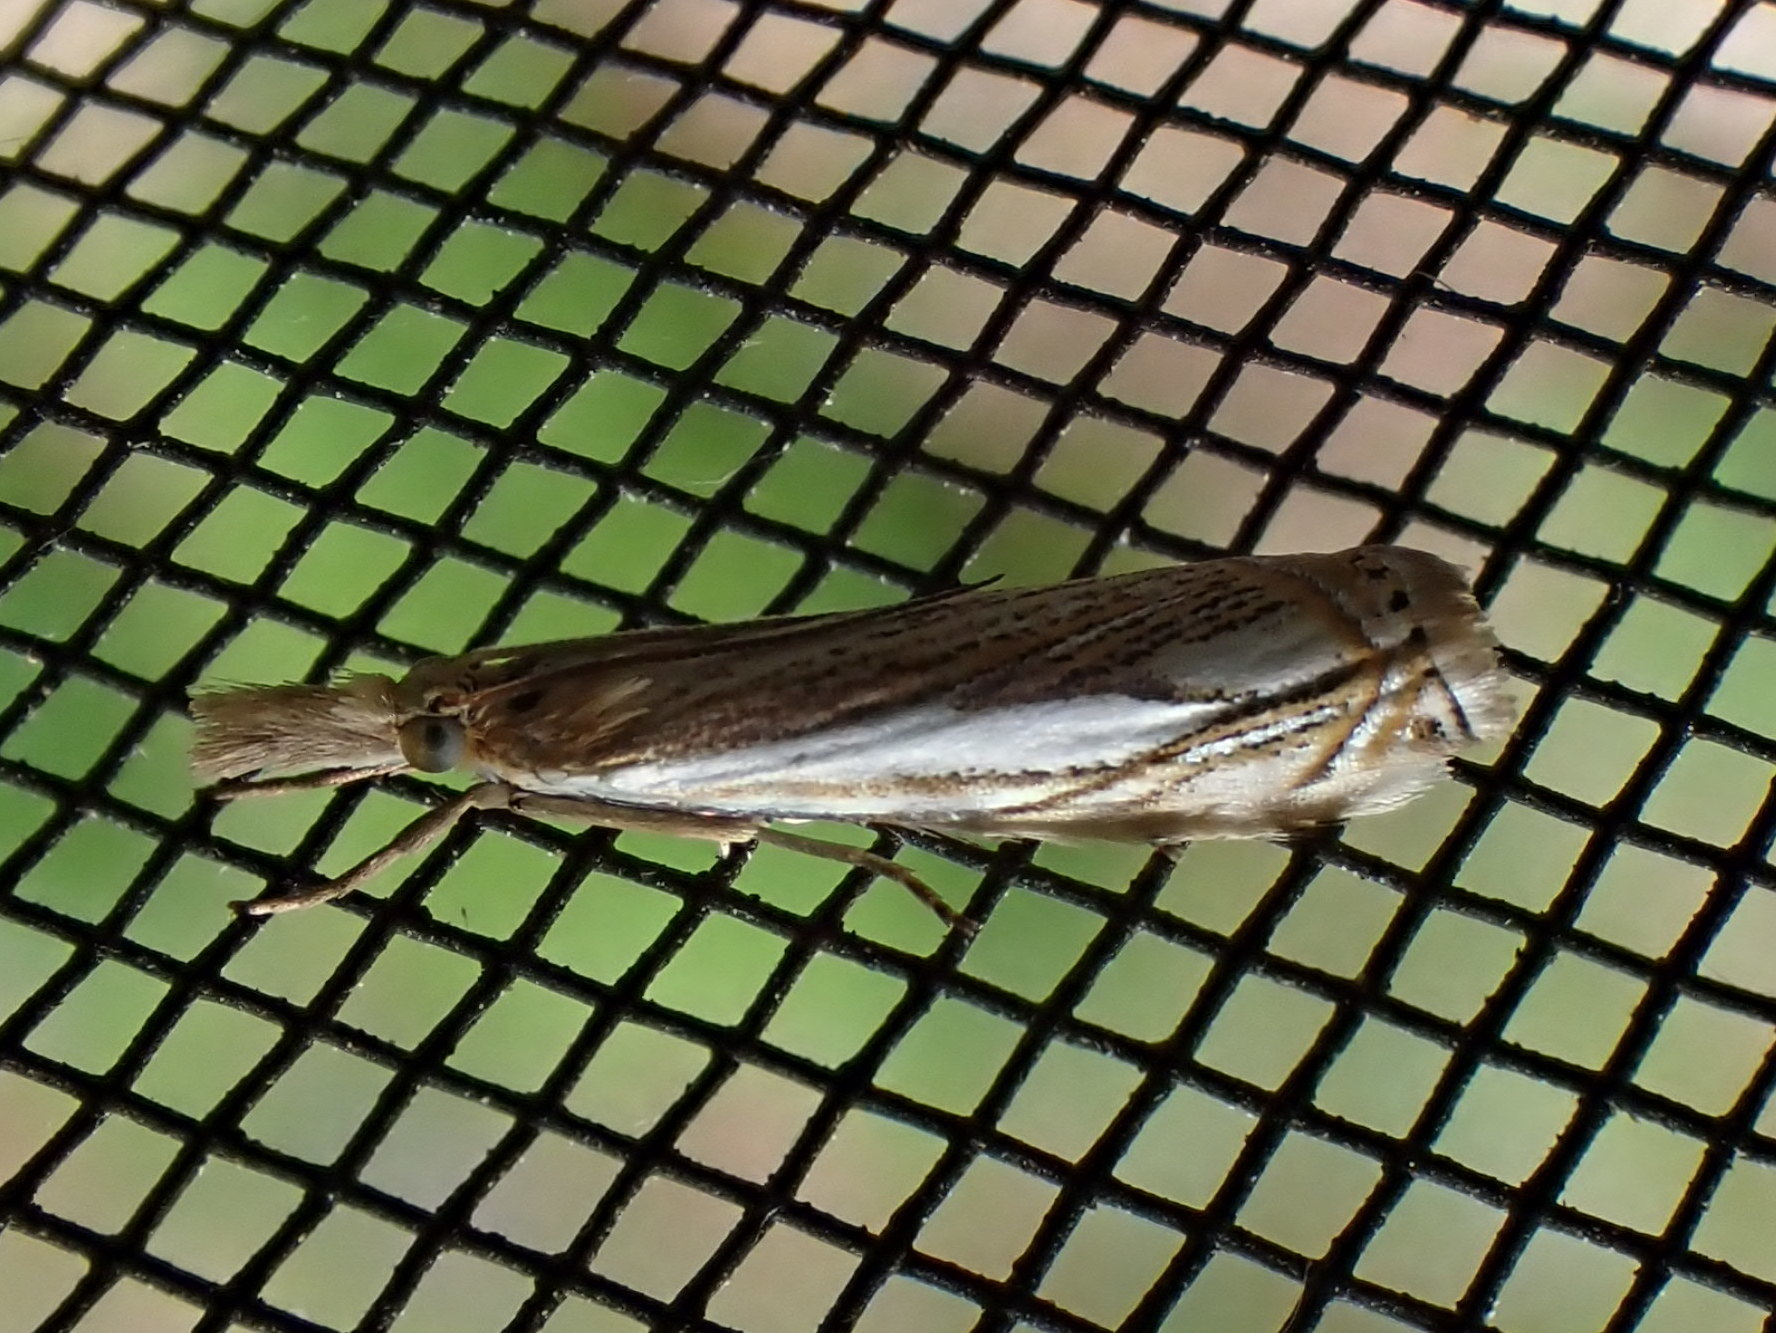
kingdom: Animalia
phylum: Arthropoda
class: Insecta
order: Lepidoptera
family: Crambidae
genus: Crambus
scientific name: Crambus saltuellus
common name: Pasture grass-veneer
